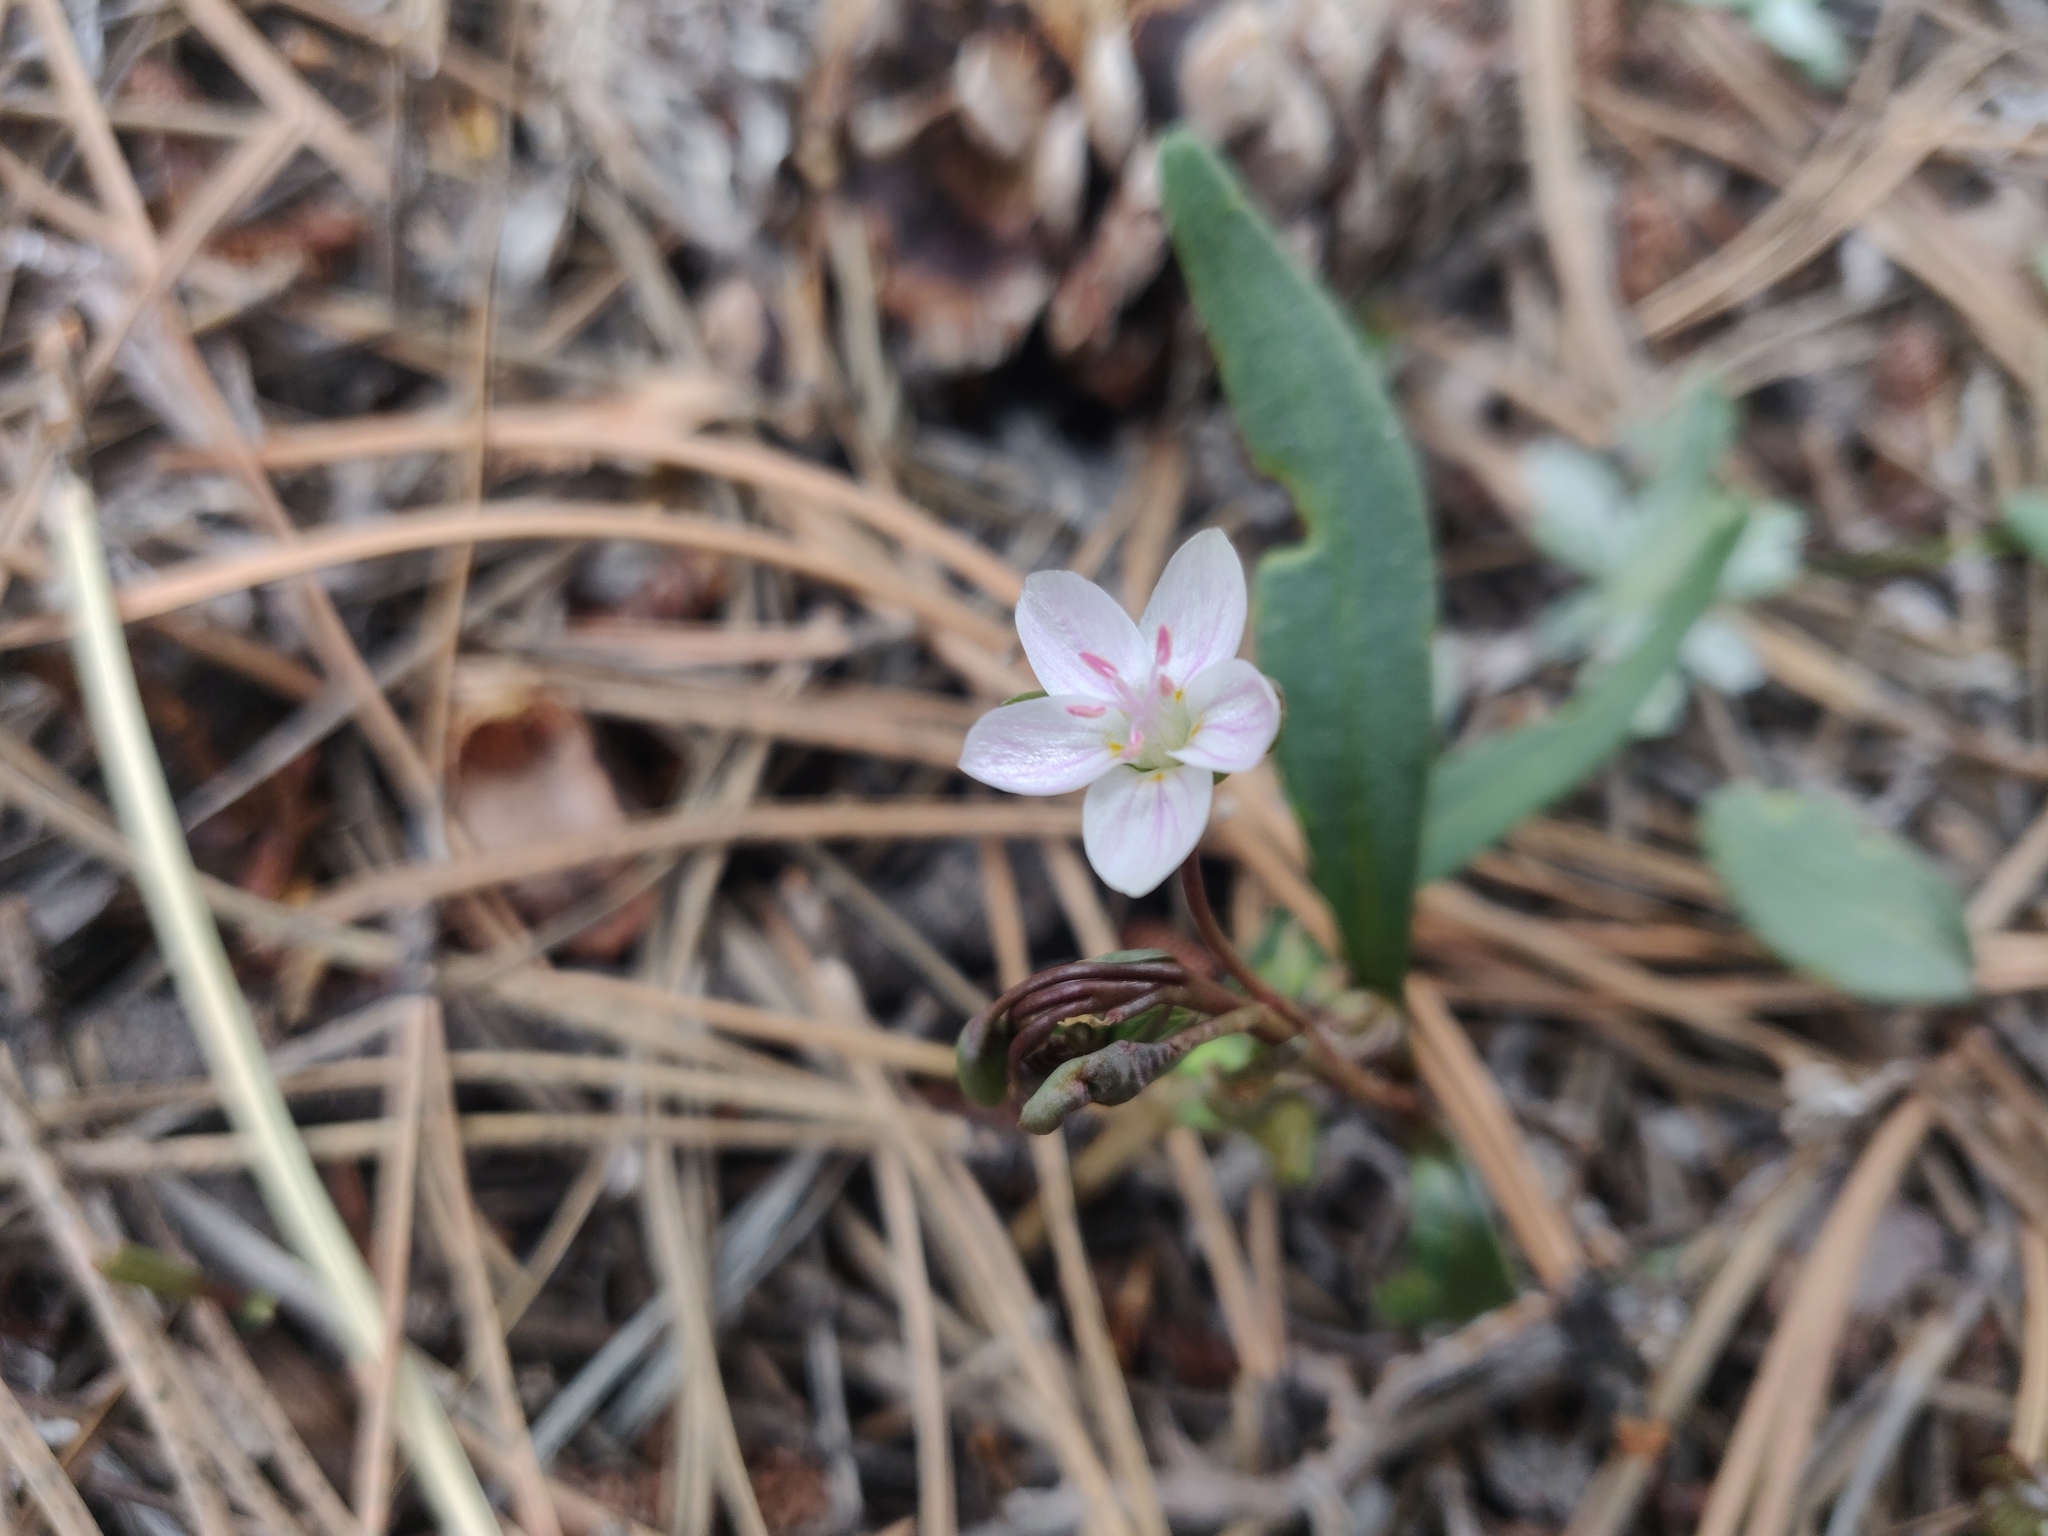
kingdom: Plantae
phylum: Tracheophyta
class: Magnoliopsida
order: Caryophyllales
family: Montiaceae
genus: Claytonia
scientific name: Claytonia rosea
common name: Rocky mountain spring-beauty
